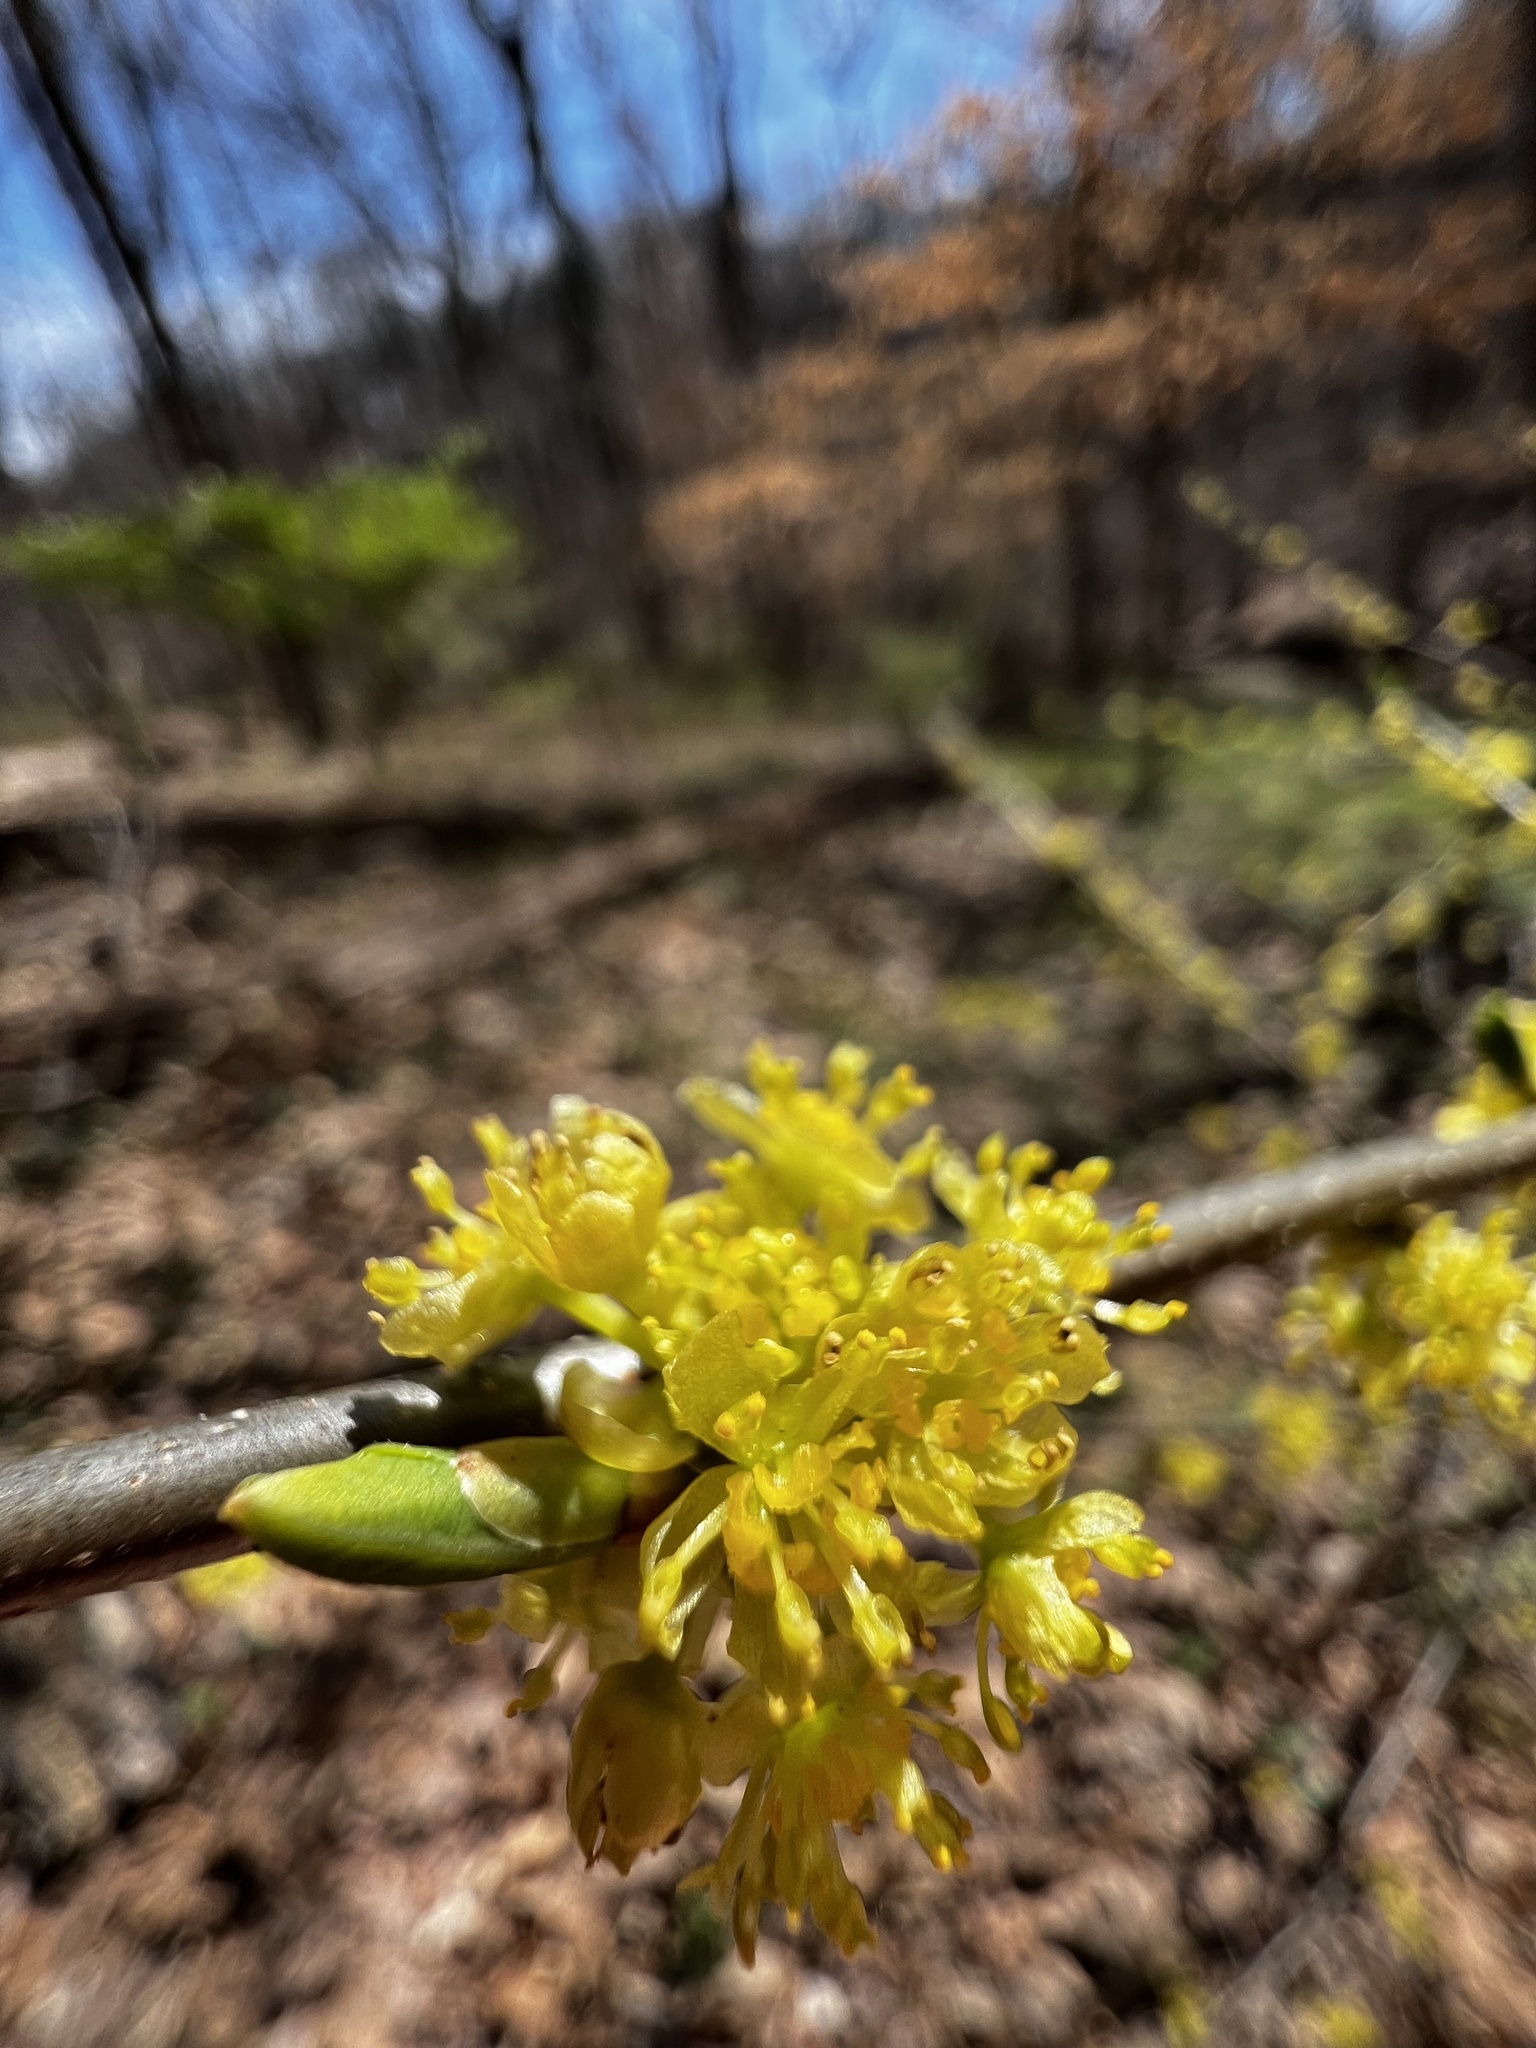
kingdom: Plantae
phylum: Tracheophyta
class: Magnoliopsida
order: Laurales
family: Lauraceae
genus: Lindera
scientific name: Lindera benzoin
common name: Spicebush
